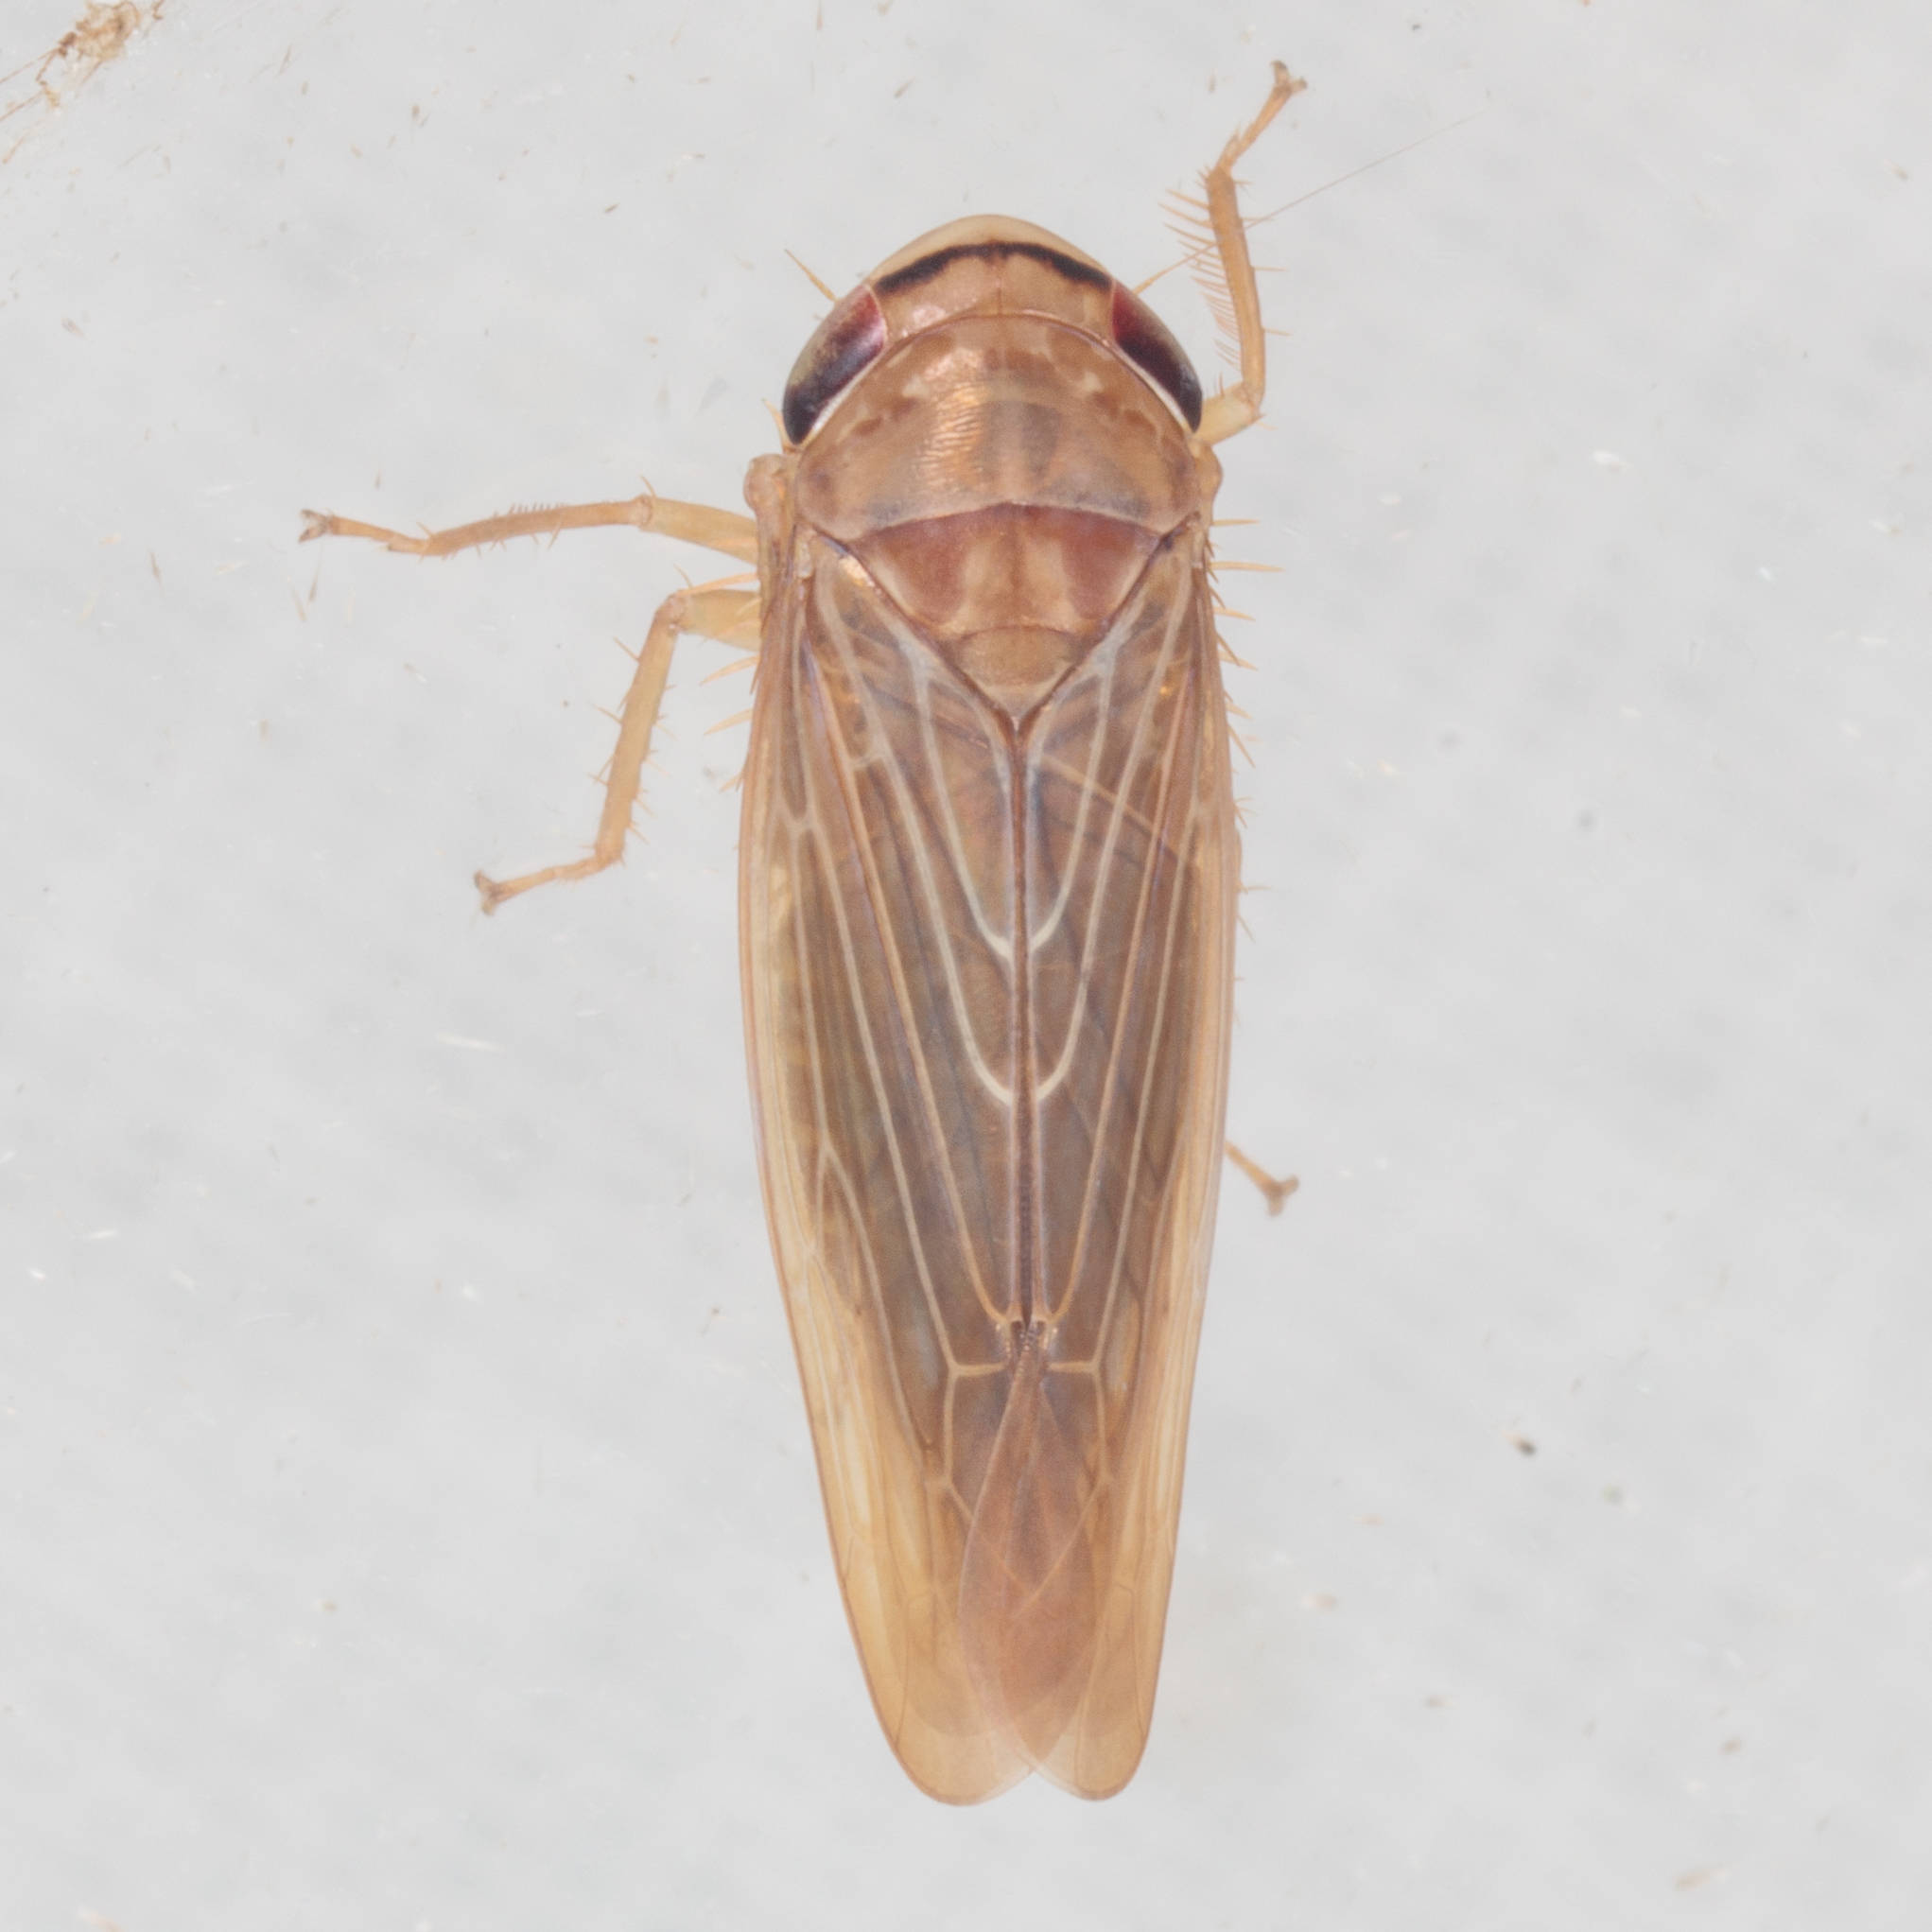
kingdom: Animalia
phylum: Arthropoda
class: Insecta
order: Hemiptera
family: Cicadellidae
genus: Chlorotettix
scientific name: Chlorotettix necopinus
